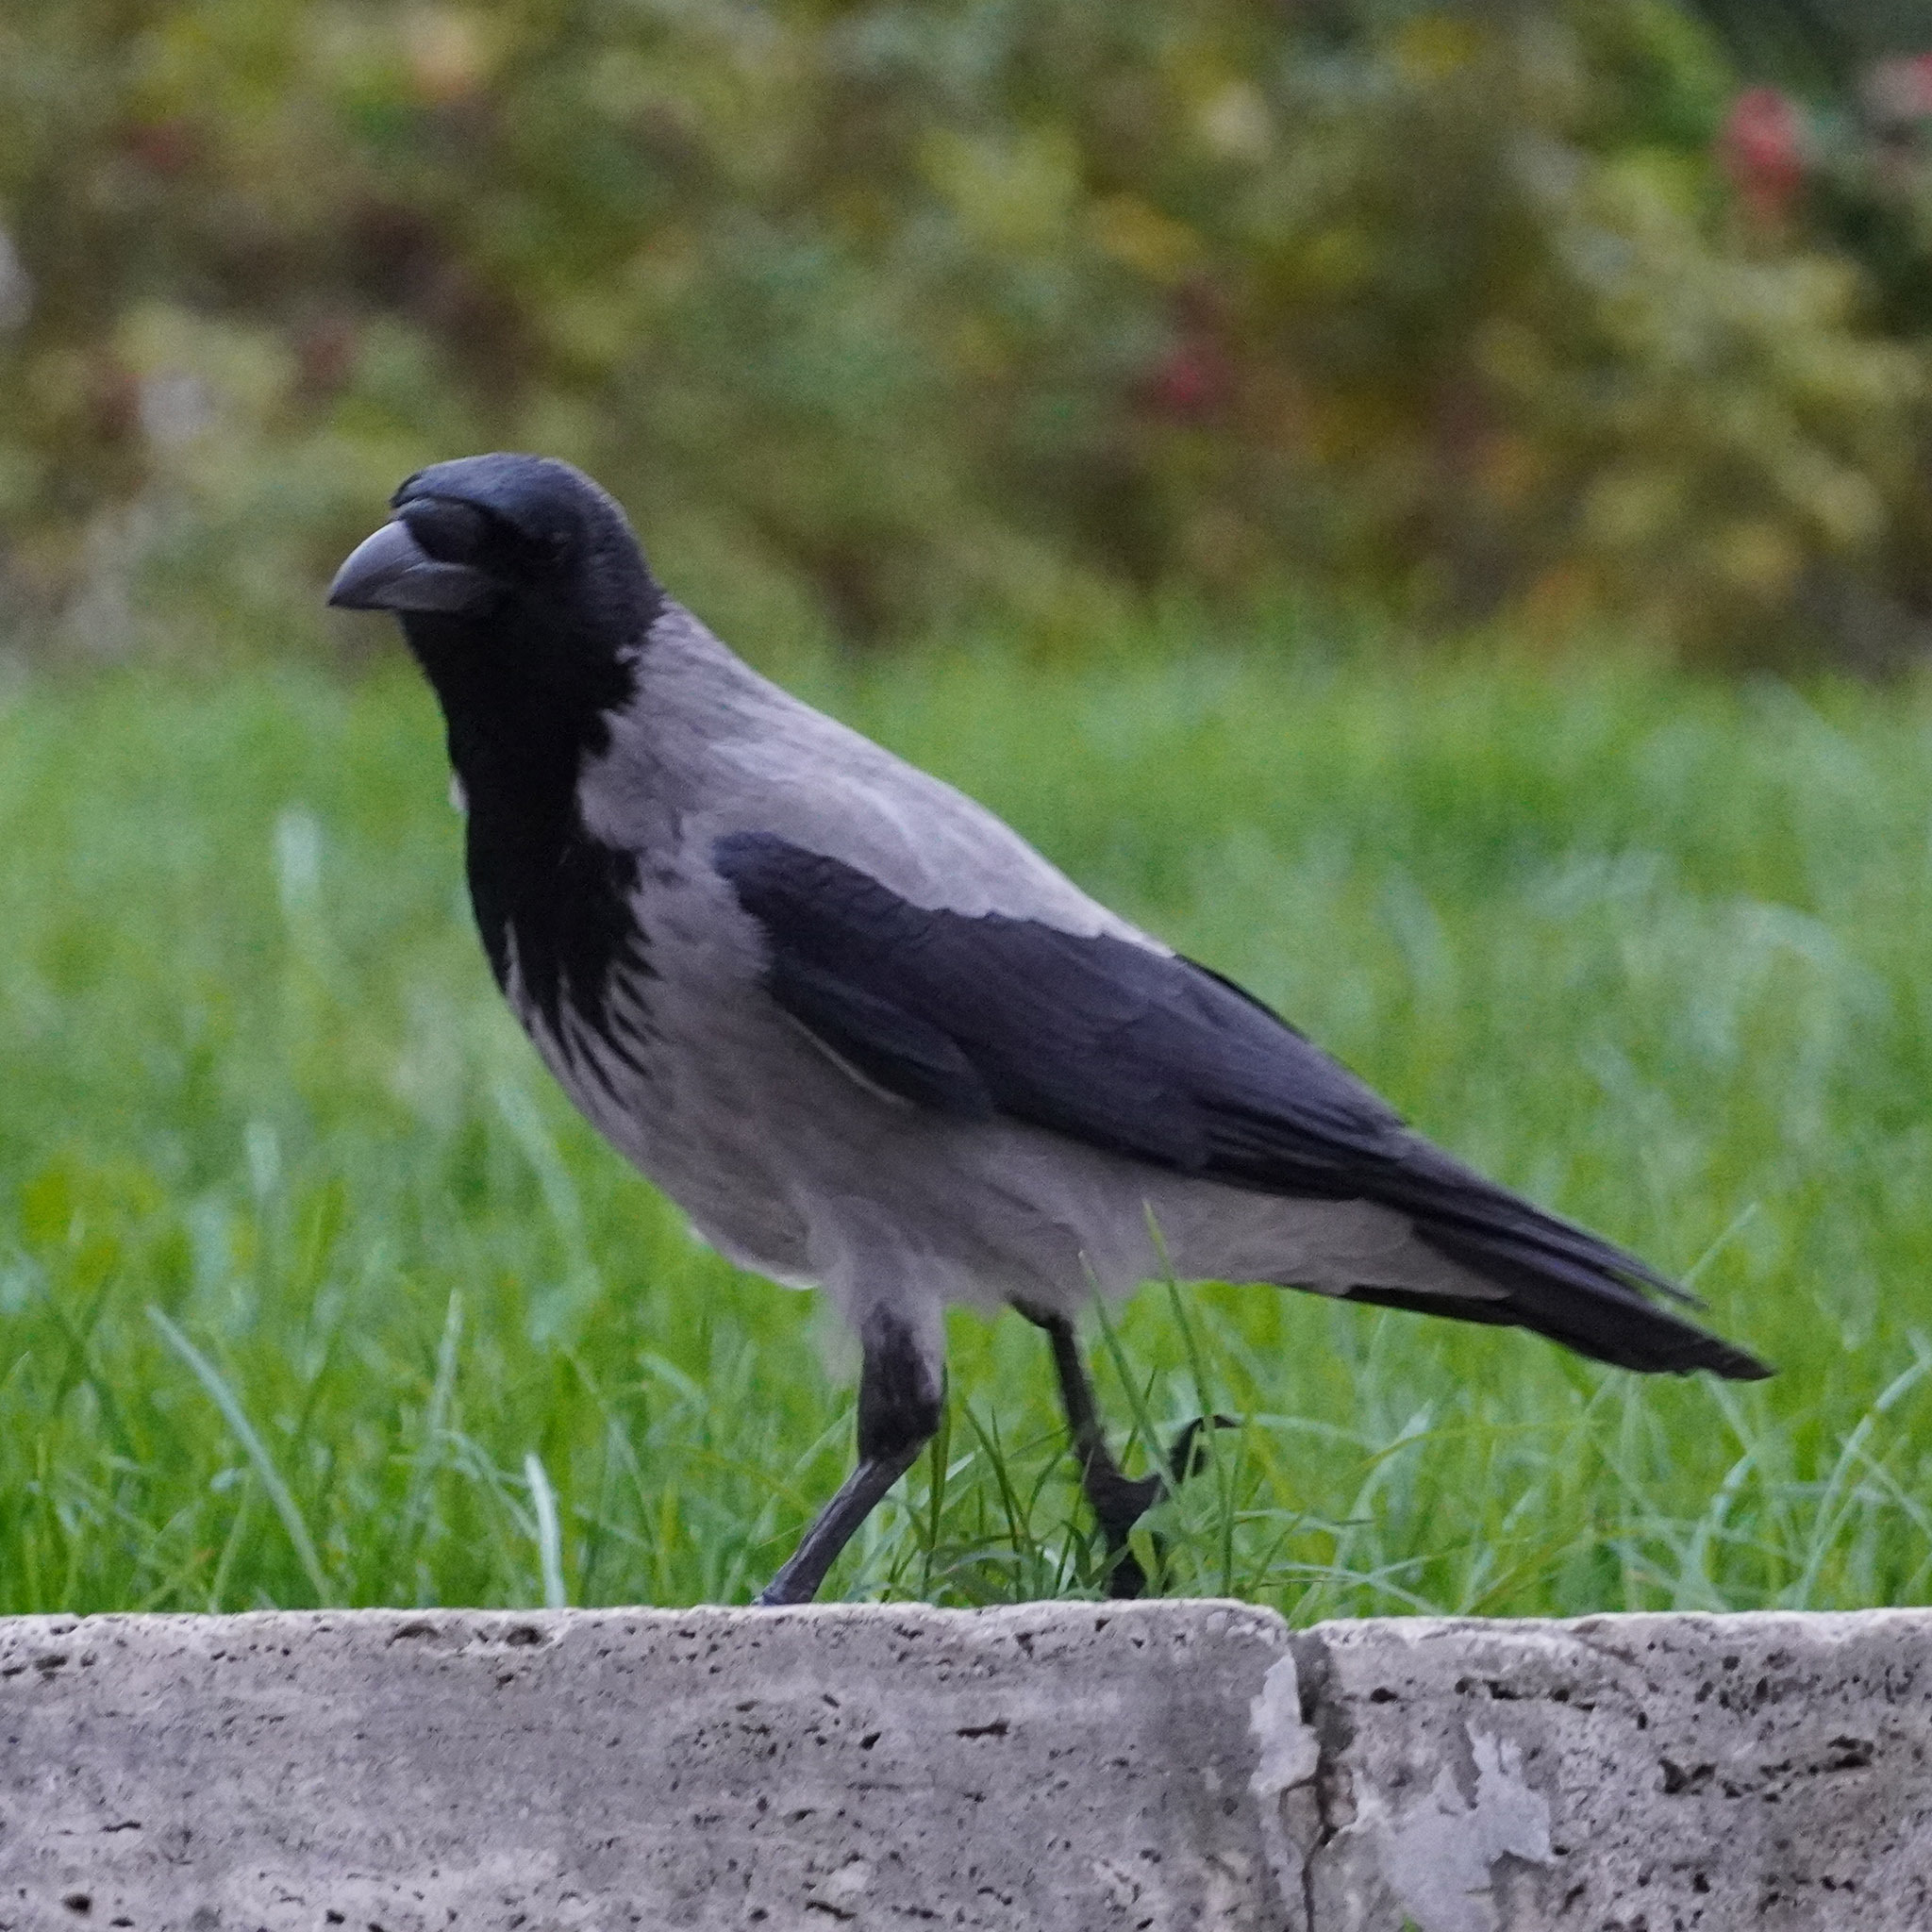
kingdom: Animalia
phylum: Chordata
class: Aves
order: Passeriformes
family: Corvidae
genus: Corvus
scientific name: Corvus cornix
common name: Hooded crow
